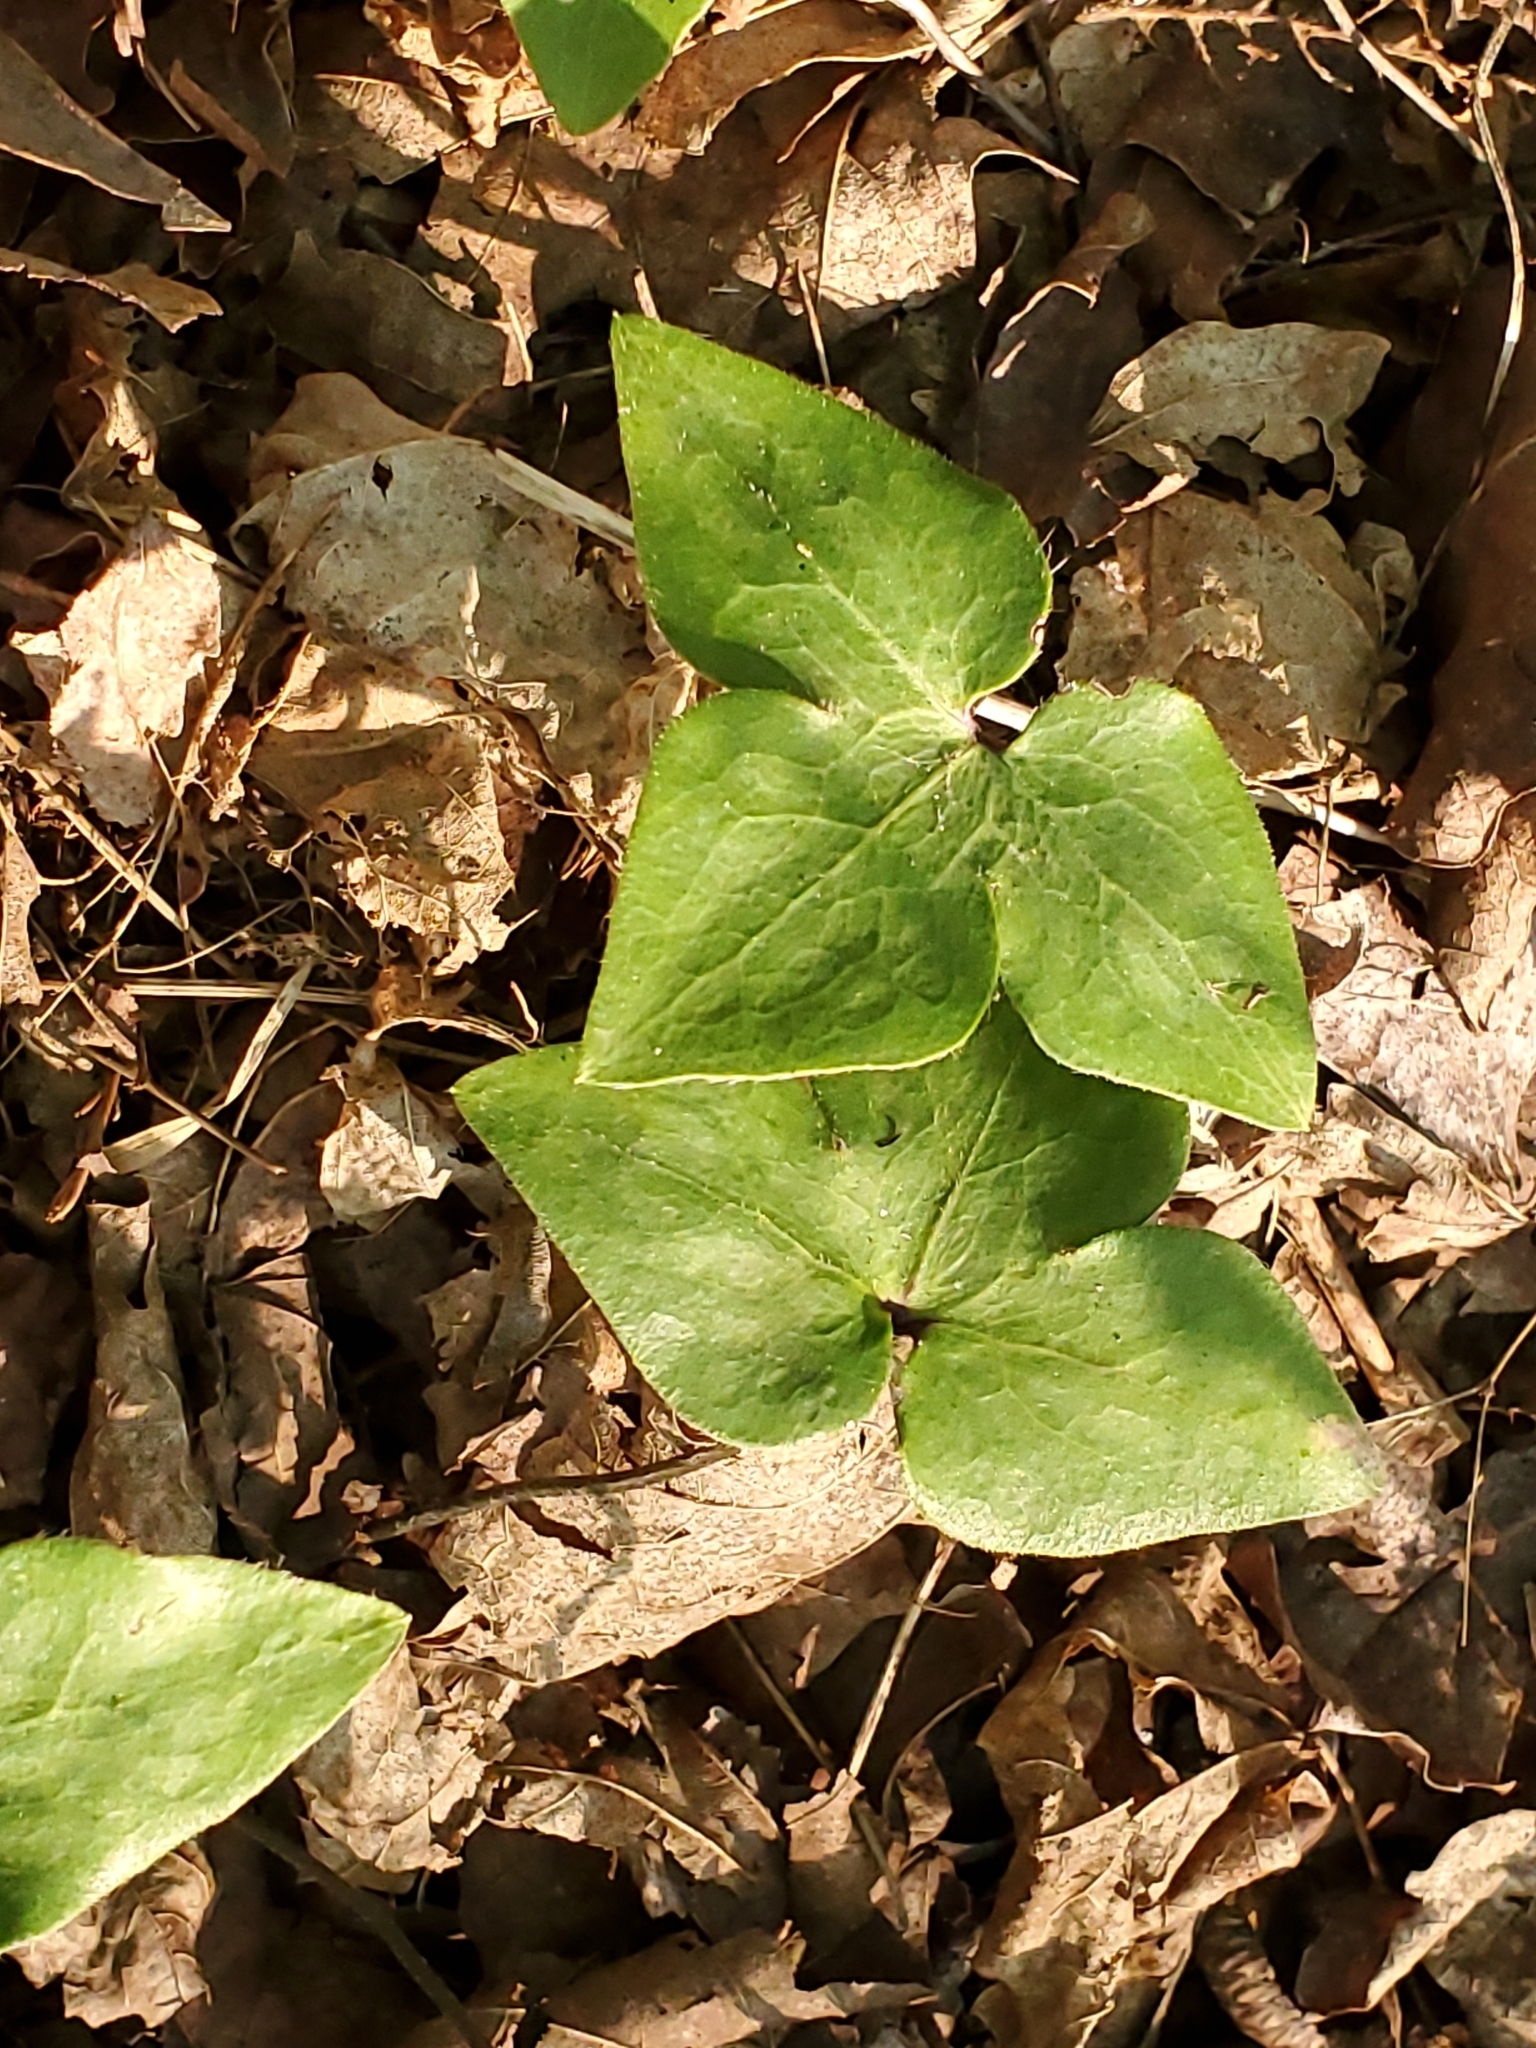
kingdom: Plantae
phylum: Tracheophyta
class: Magnoliopsida
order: Ranunculales
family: Ranunculaceae
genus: Hepatica
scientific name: Hepatica acutiloba
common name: Sharp-lobed hepatica
